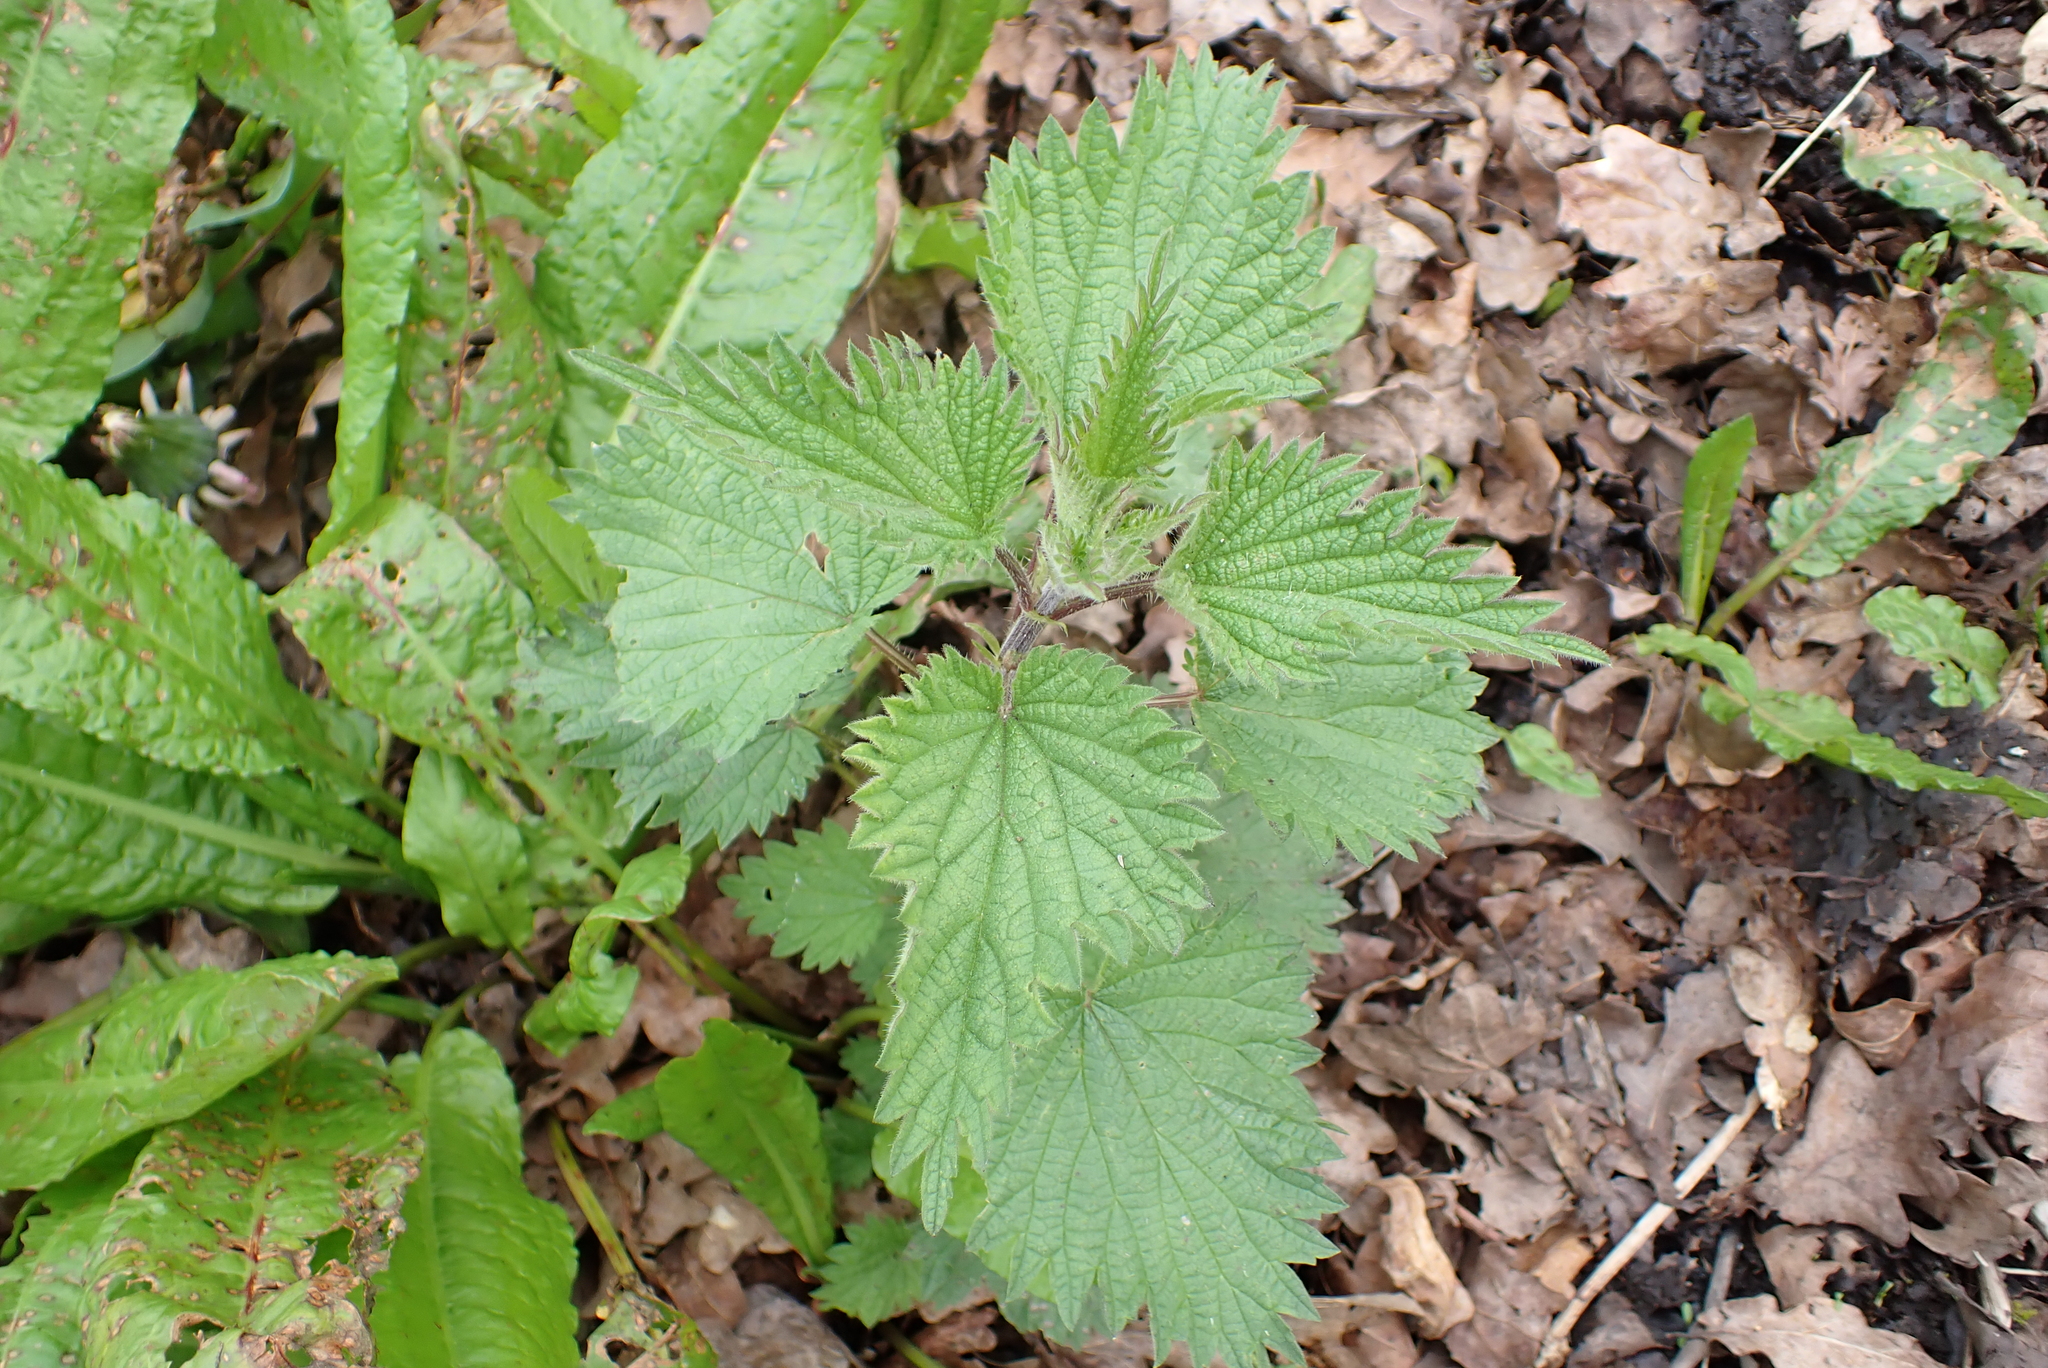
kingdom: Plantae
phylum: Tracheophyta
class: Magnoliopsida
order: Rosales
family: Urticaceae
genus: Urtica
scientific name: Urtica dioica
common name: Common nettle
